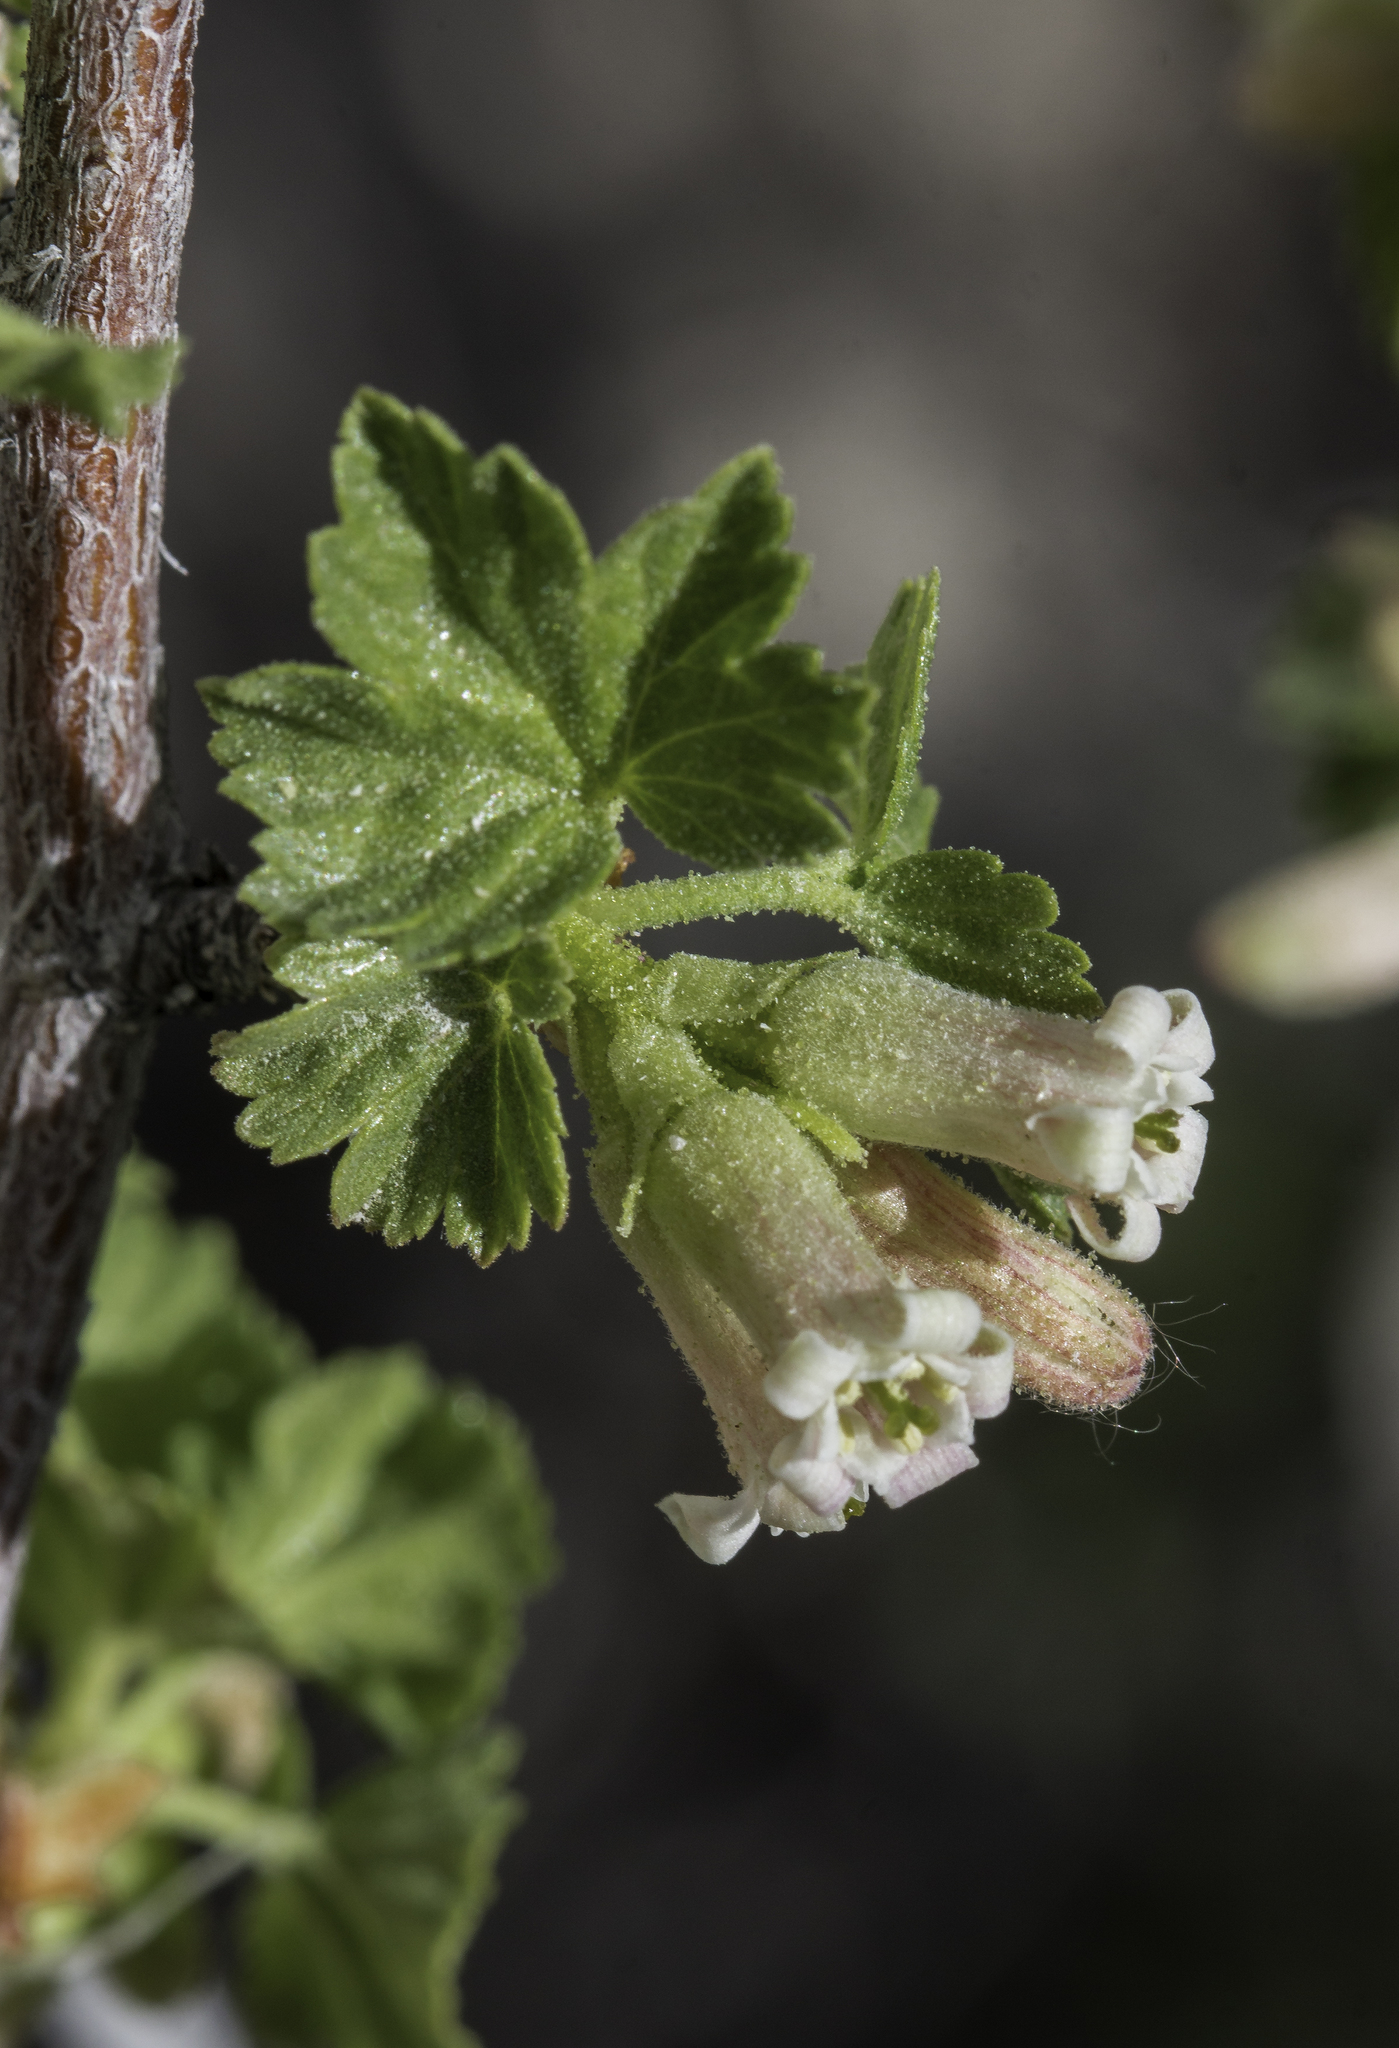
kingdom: Plantae
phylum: Tracheophyta
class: Magnoliopsida
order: Saxifragales
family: Grossulariaceae
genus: Ribes
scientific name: Ribes cereum
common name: Wax currant
